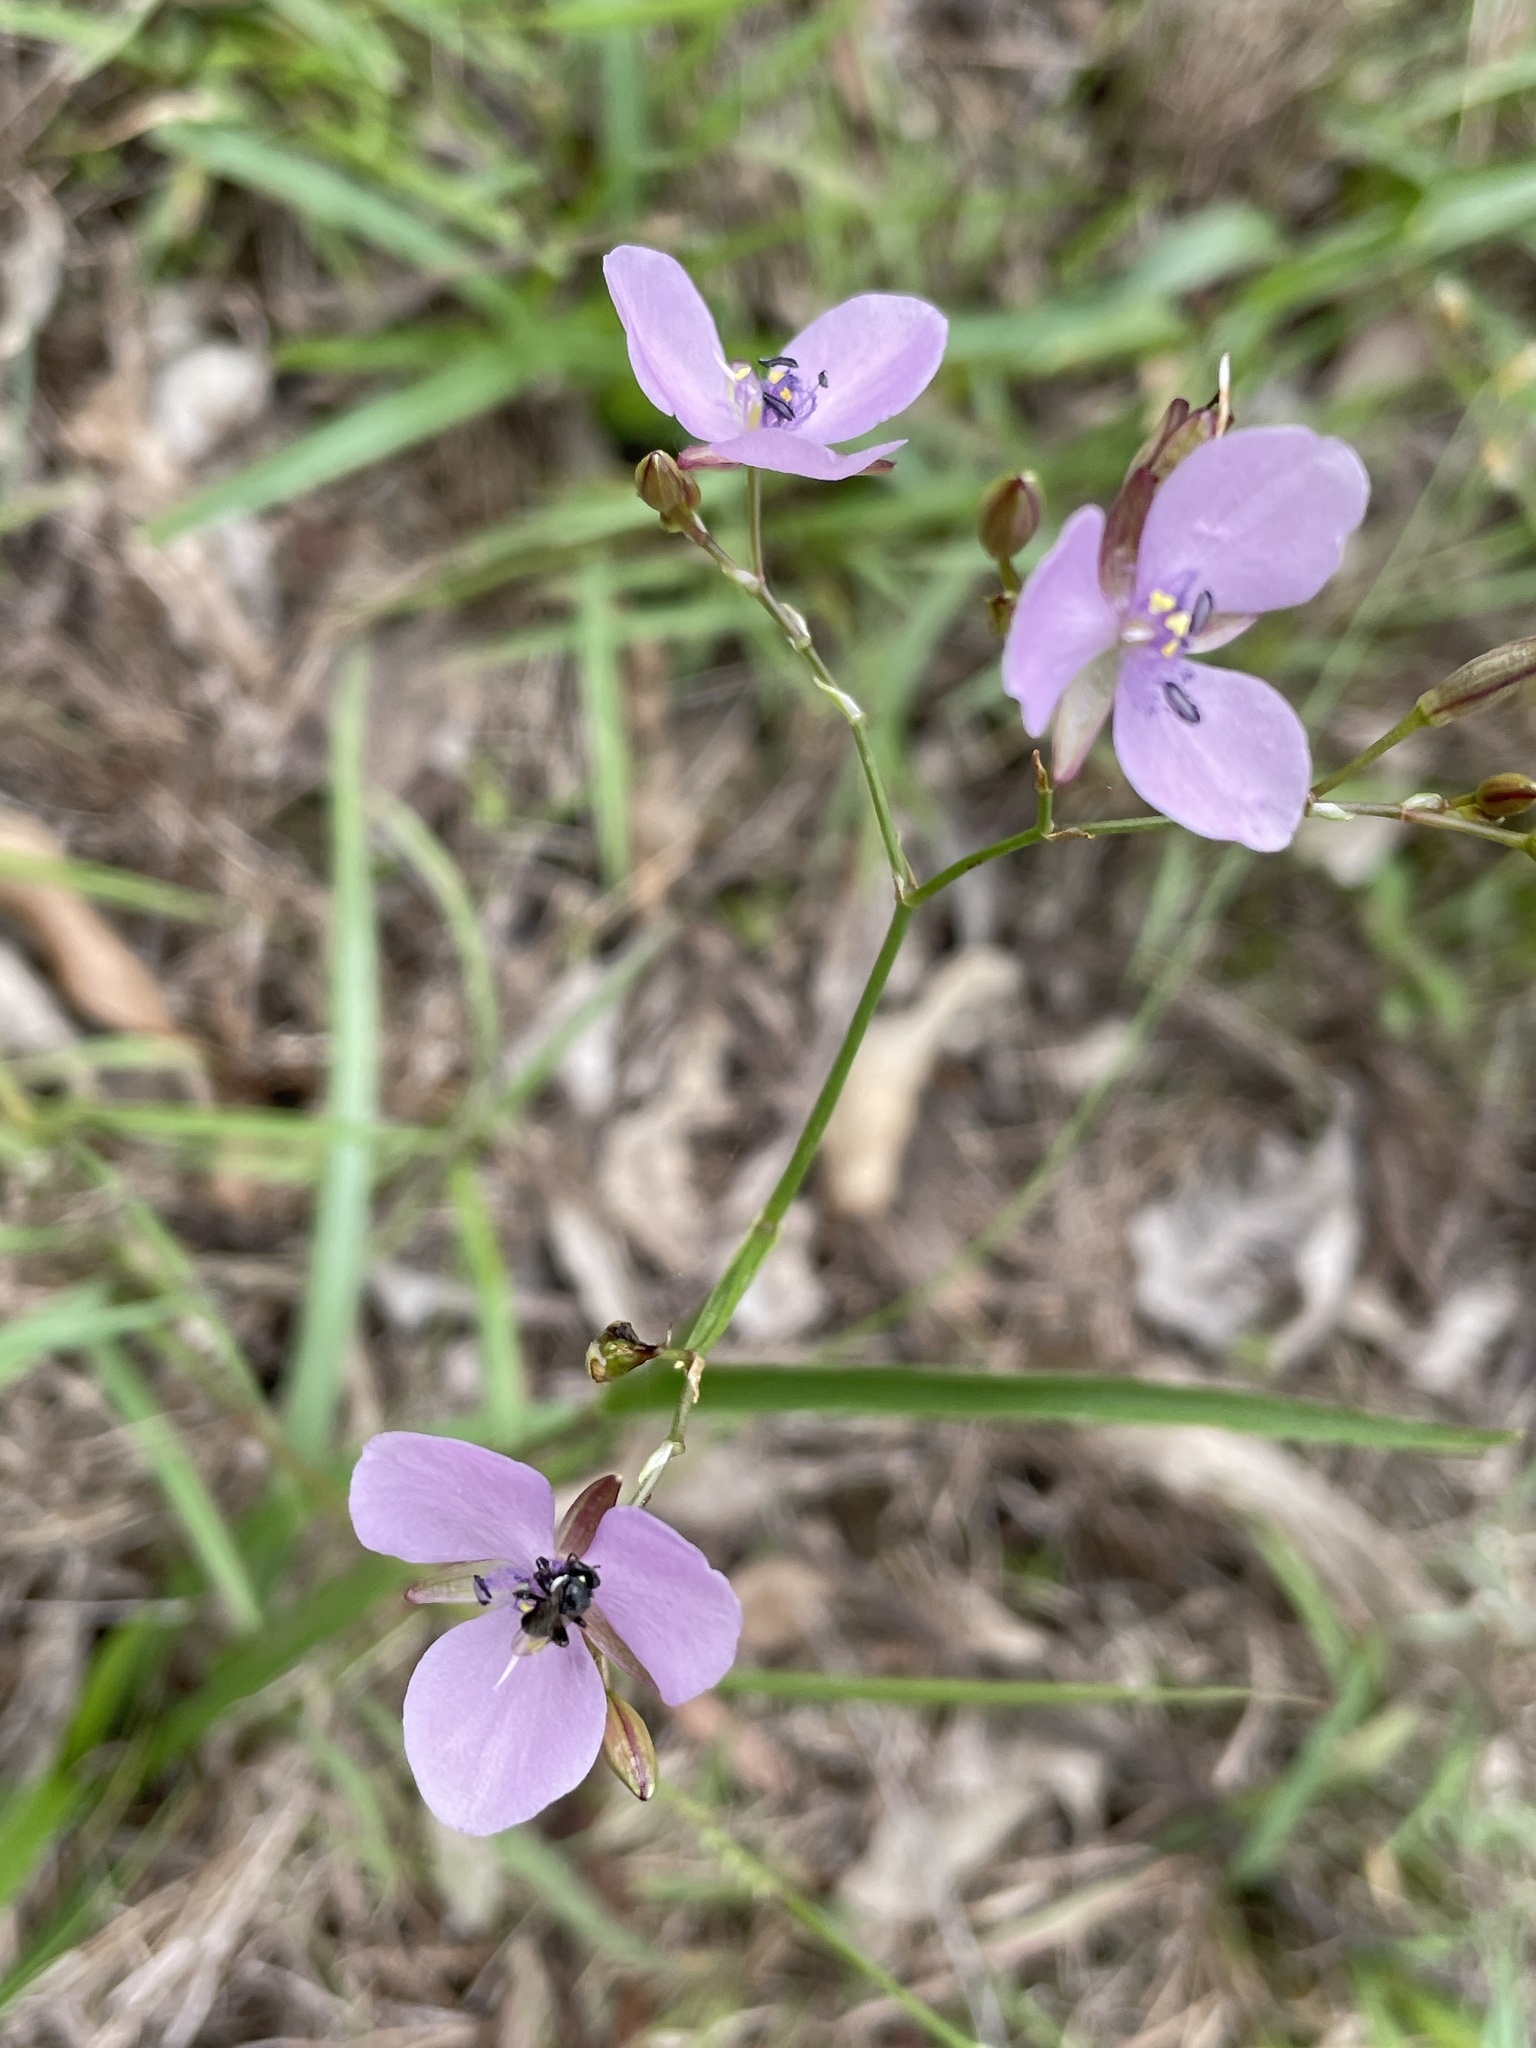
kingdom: Plantae
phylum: Tracheophyta
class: Liliopsida
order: Commelinales
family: Commelinaceae
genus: Murdannia
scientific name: Murdannia graminea
